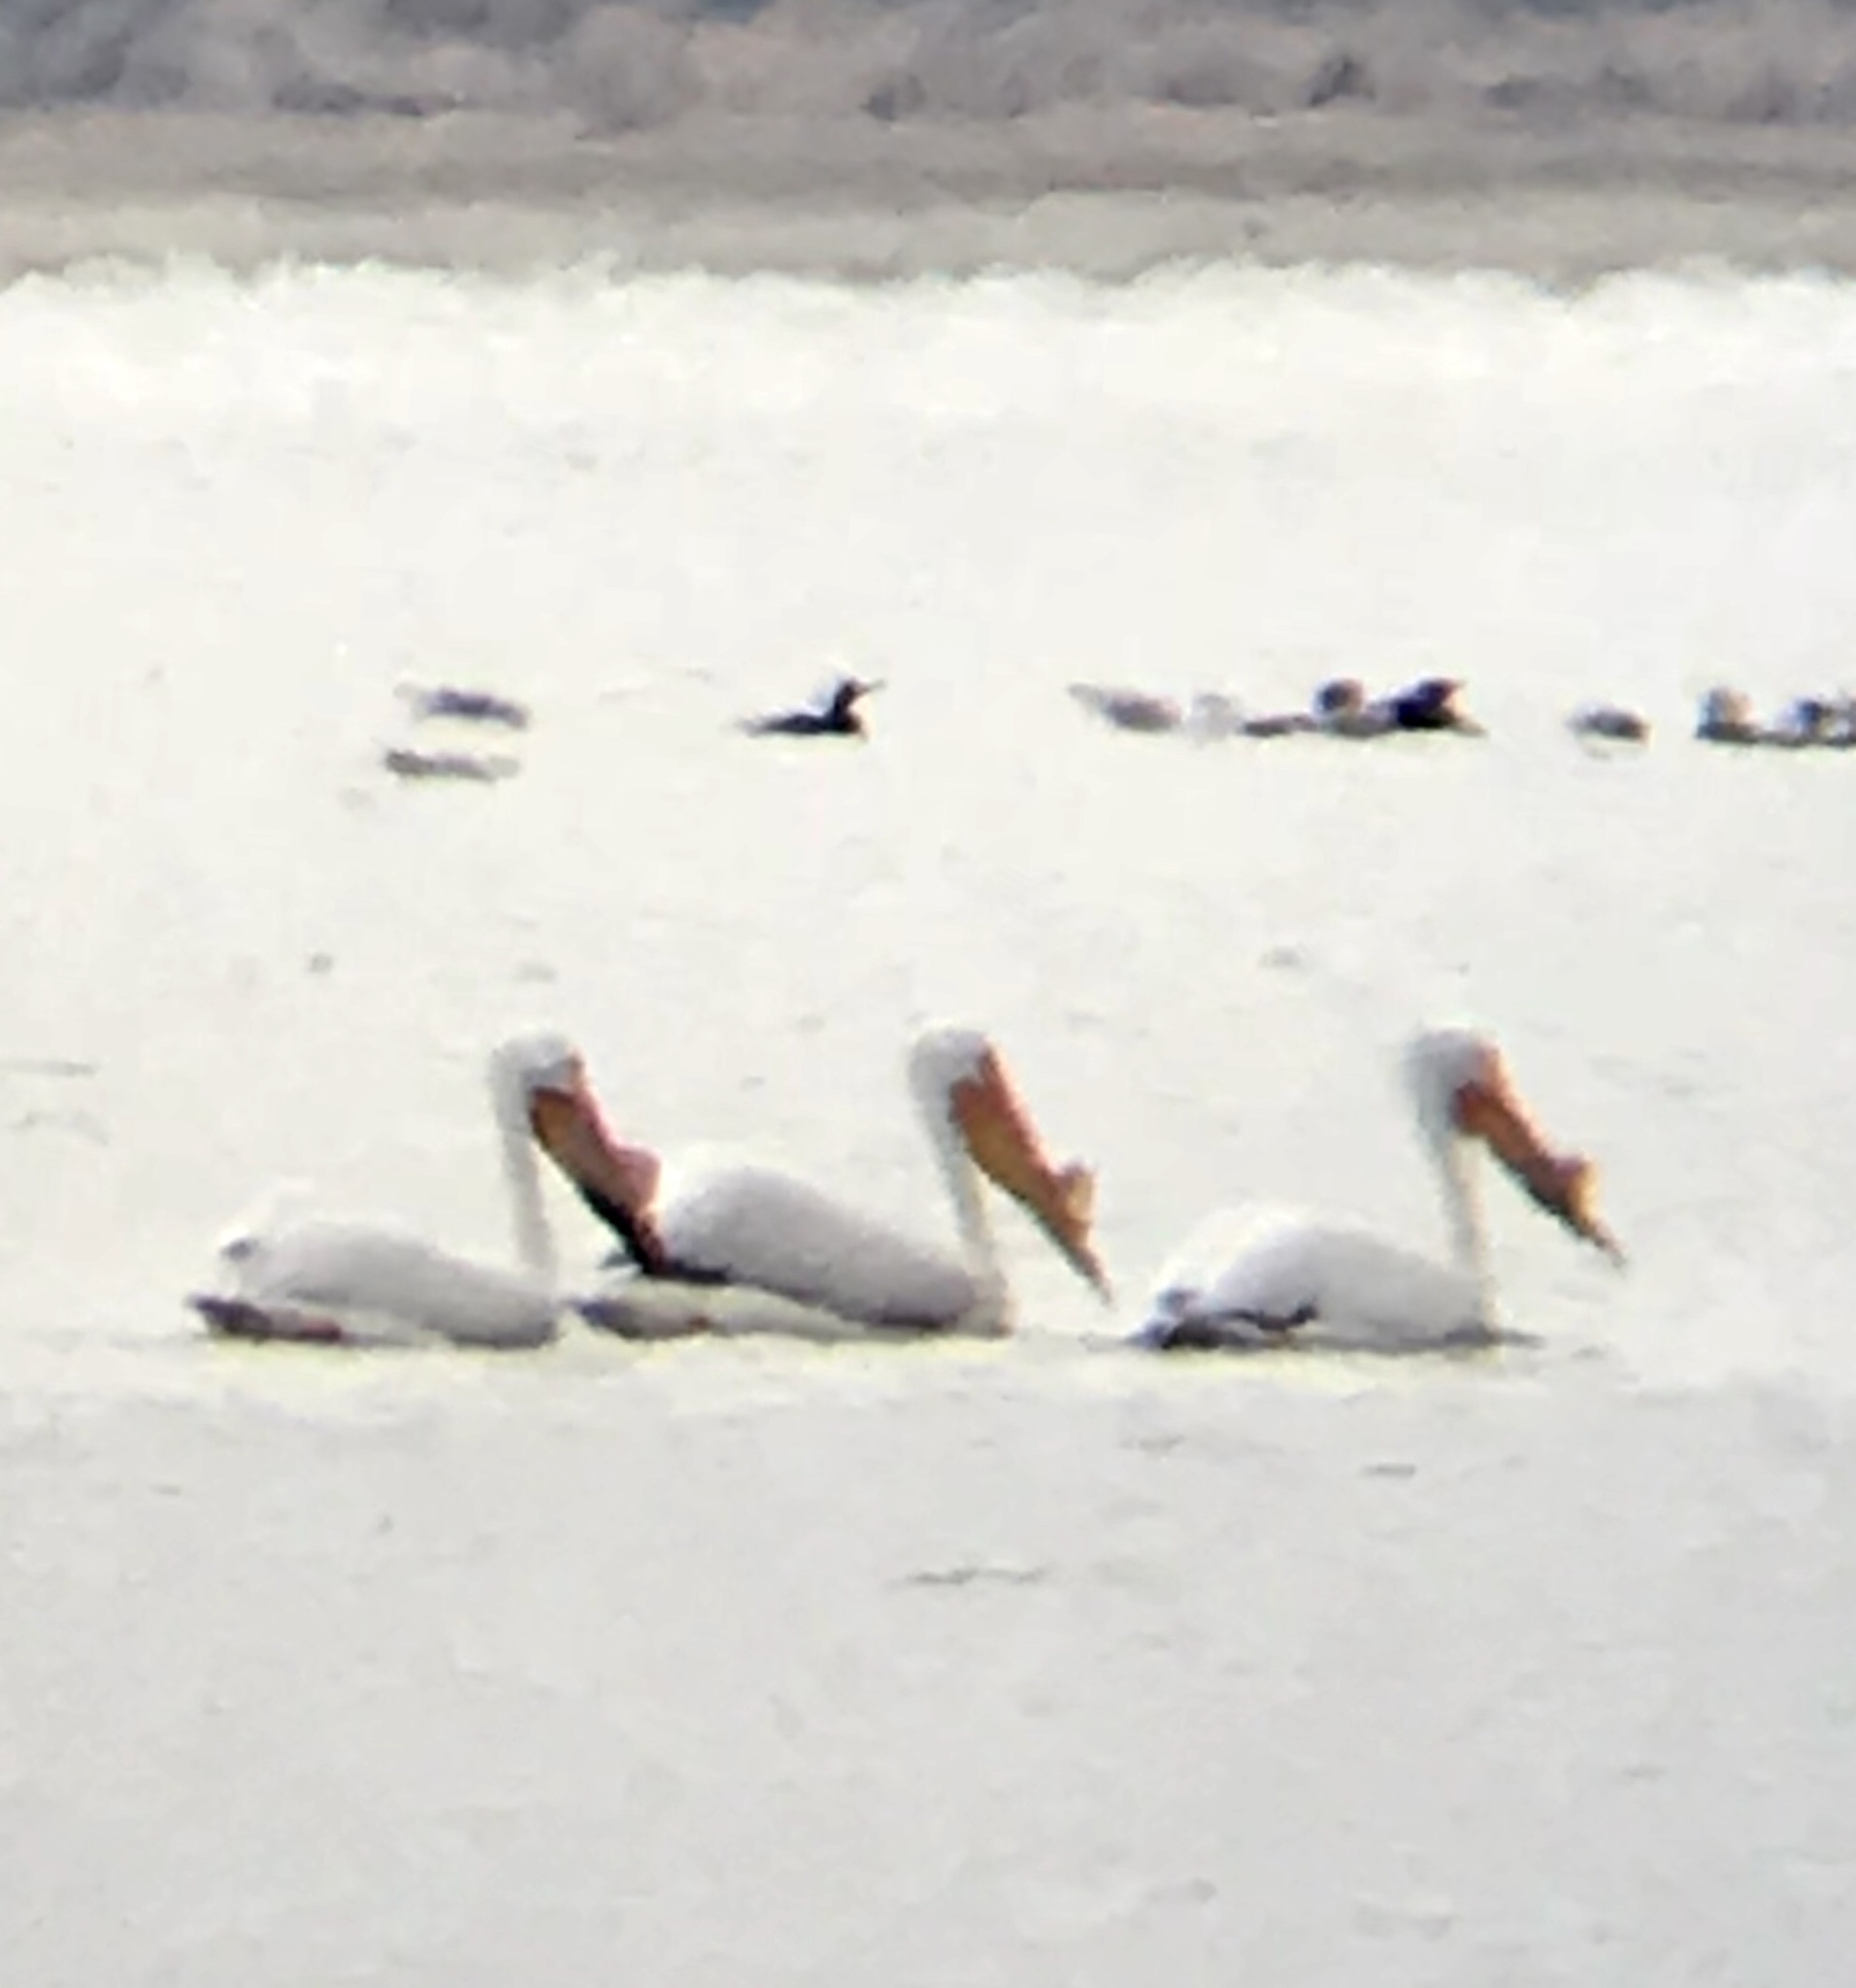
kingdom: Animalia
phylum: Chordata
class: Aves
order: Pelecaniformes
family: Pelecanidae
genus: Pelecanus
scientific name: Pelecanus erythrorhynchos
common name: American white pelican
